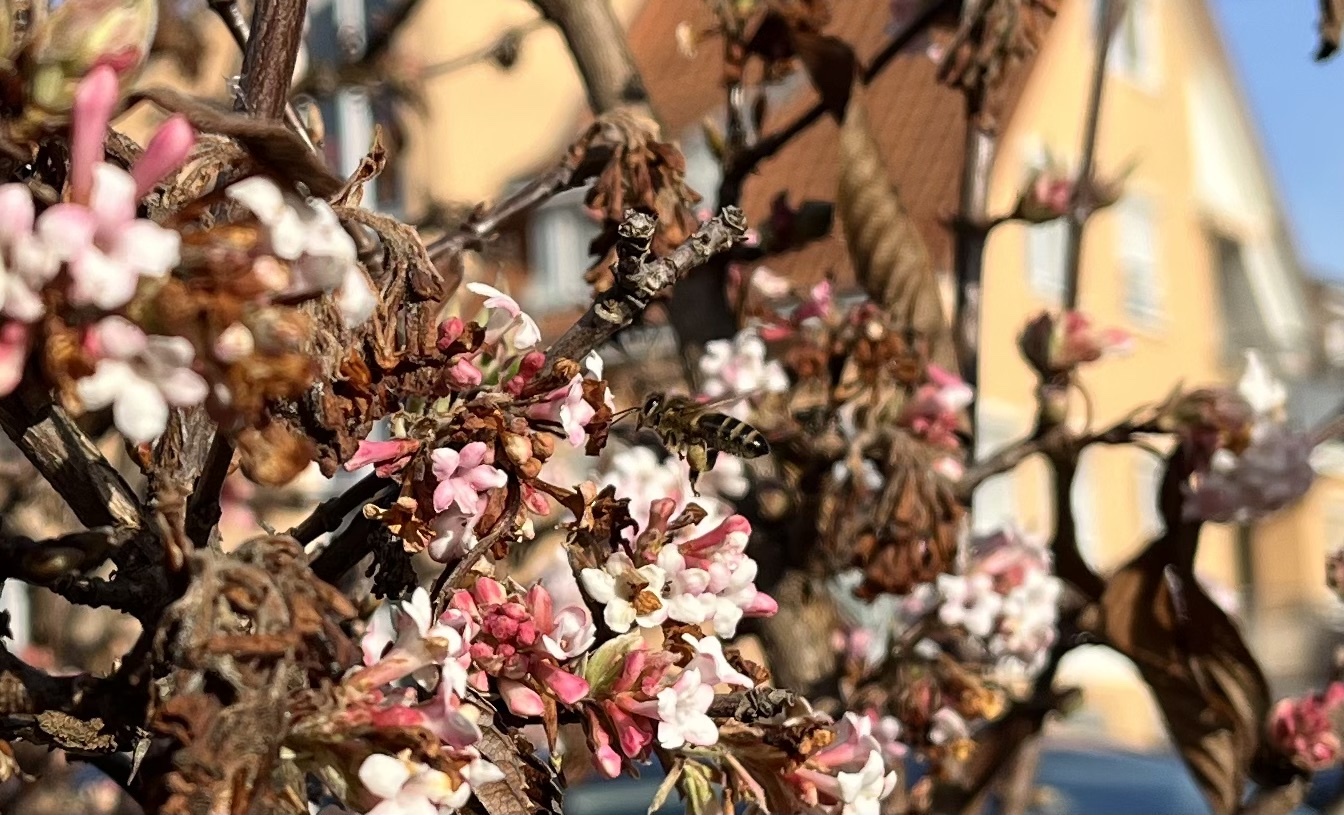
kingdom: Animalia
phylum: Arthropoda
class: Insecta
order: Hymenoptera
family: Apidae
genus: Apis
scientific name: Apis mellifera
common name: Honey bee
